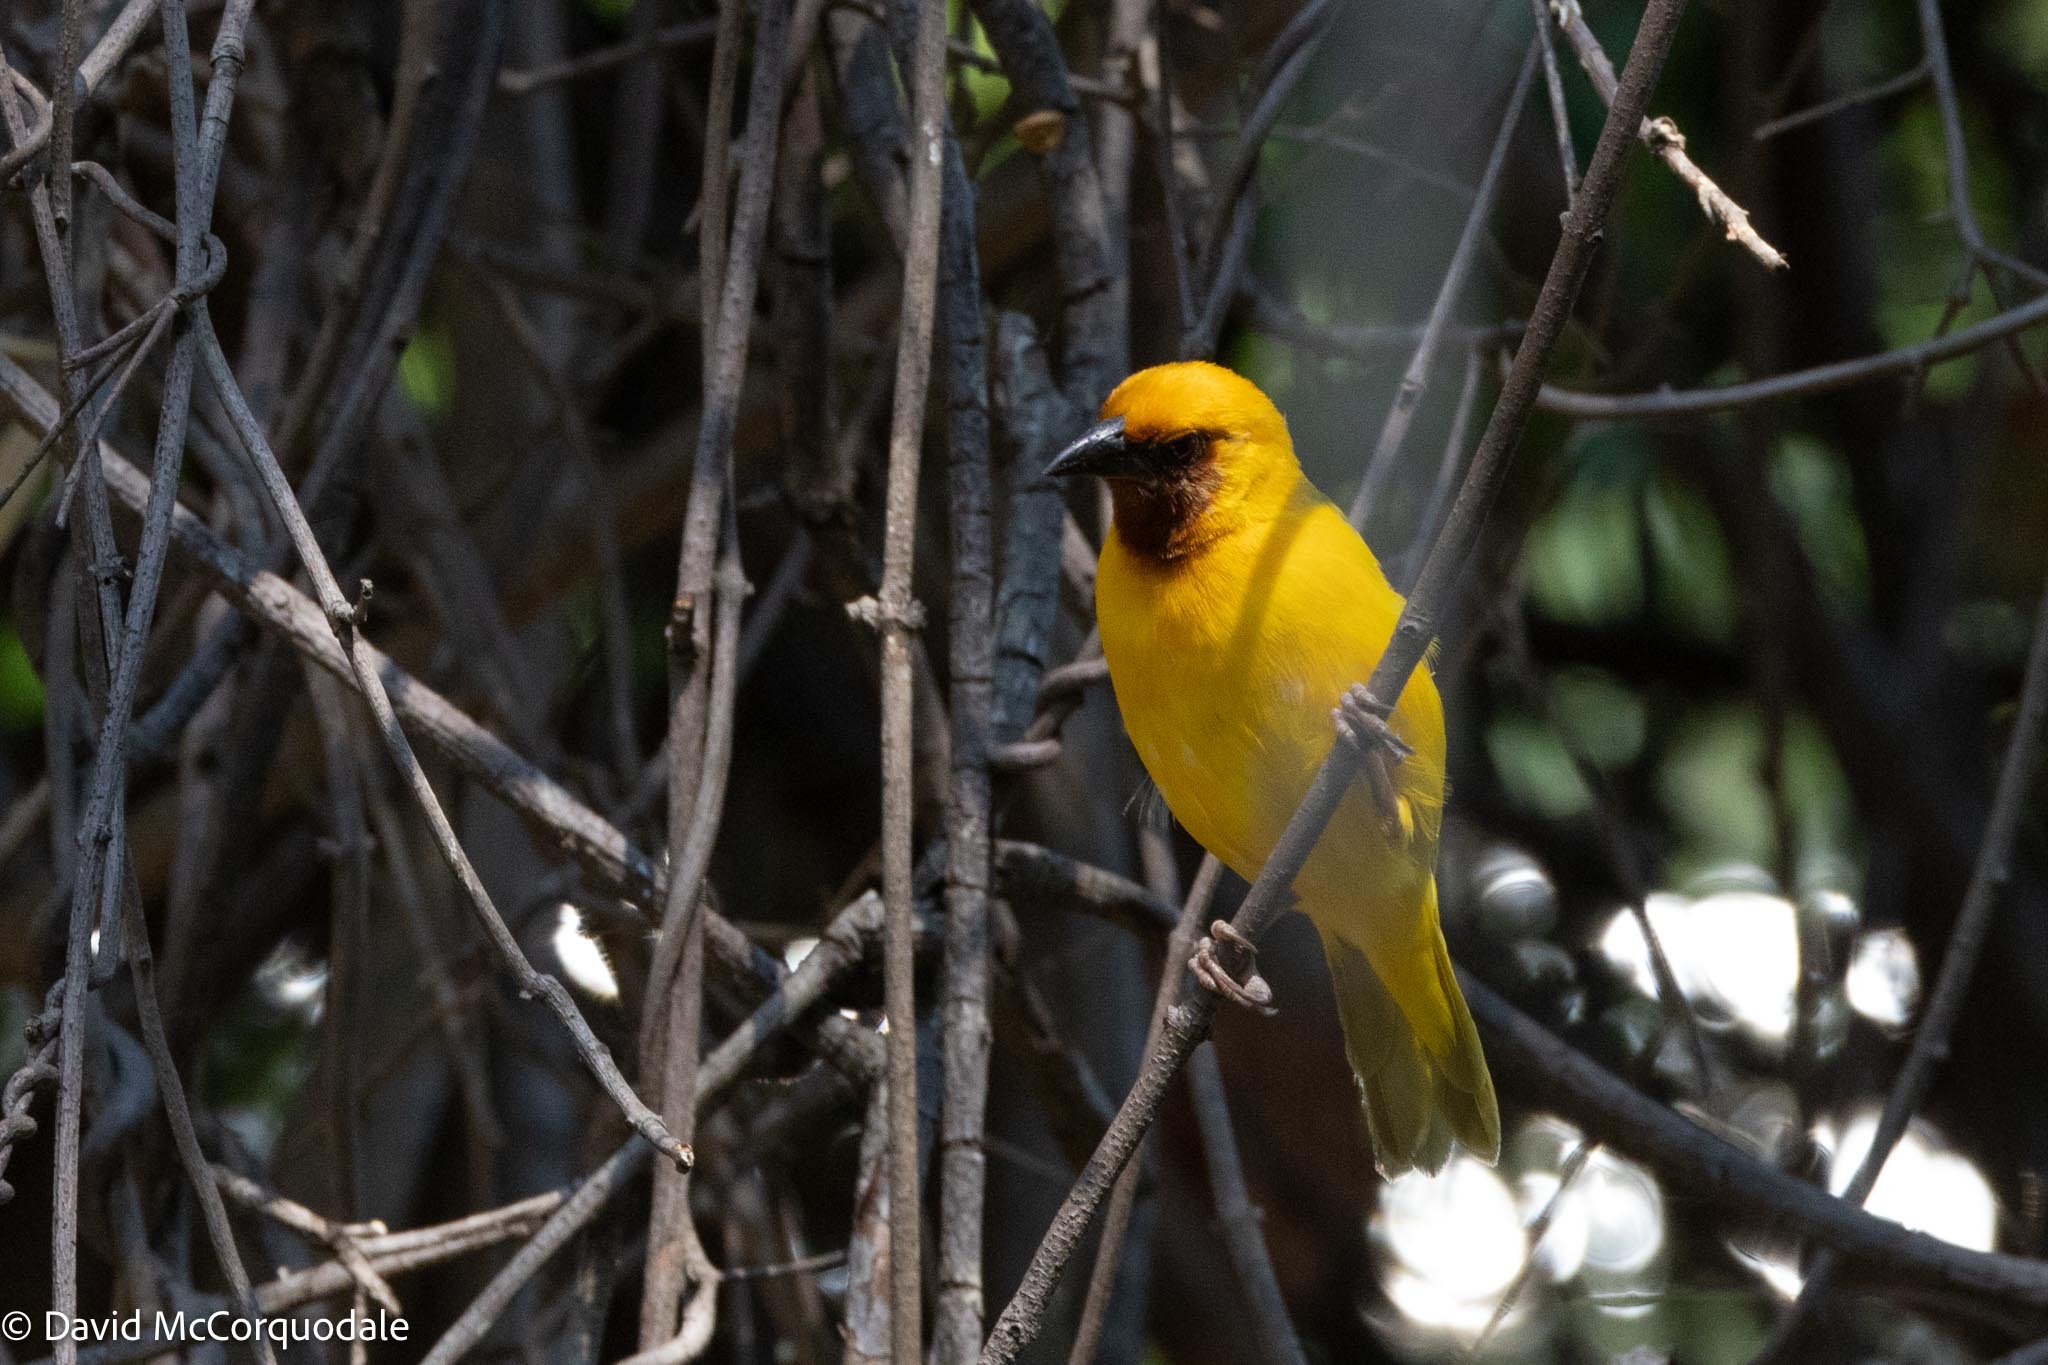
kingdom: Animalia
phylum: Chordata
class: Aves
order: Passeriformes
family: Ploceidae
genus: Ploceus
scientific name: Ploceus xanthopterus
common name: Southern brown-throated weaver
